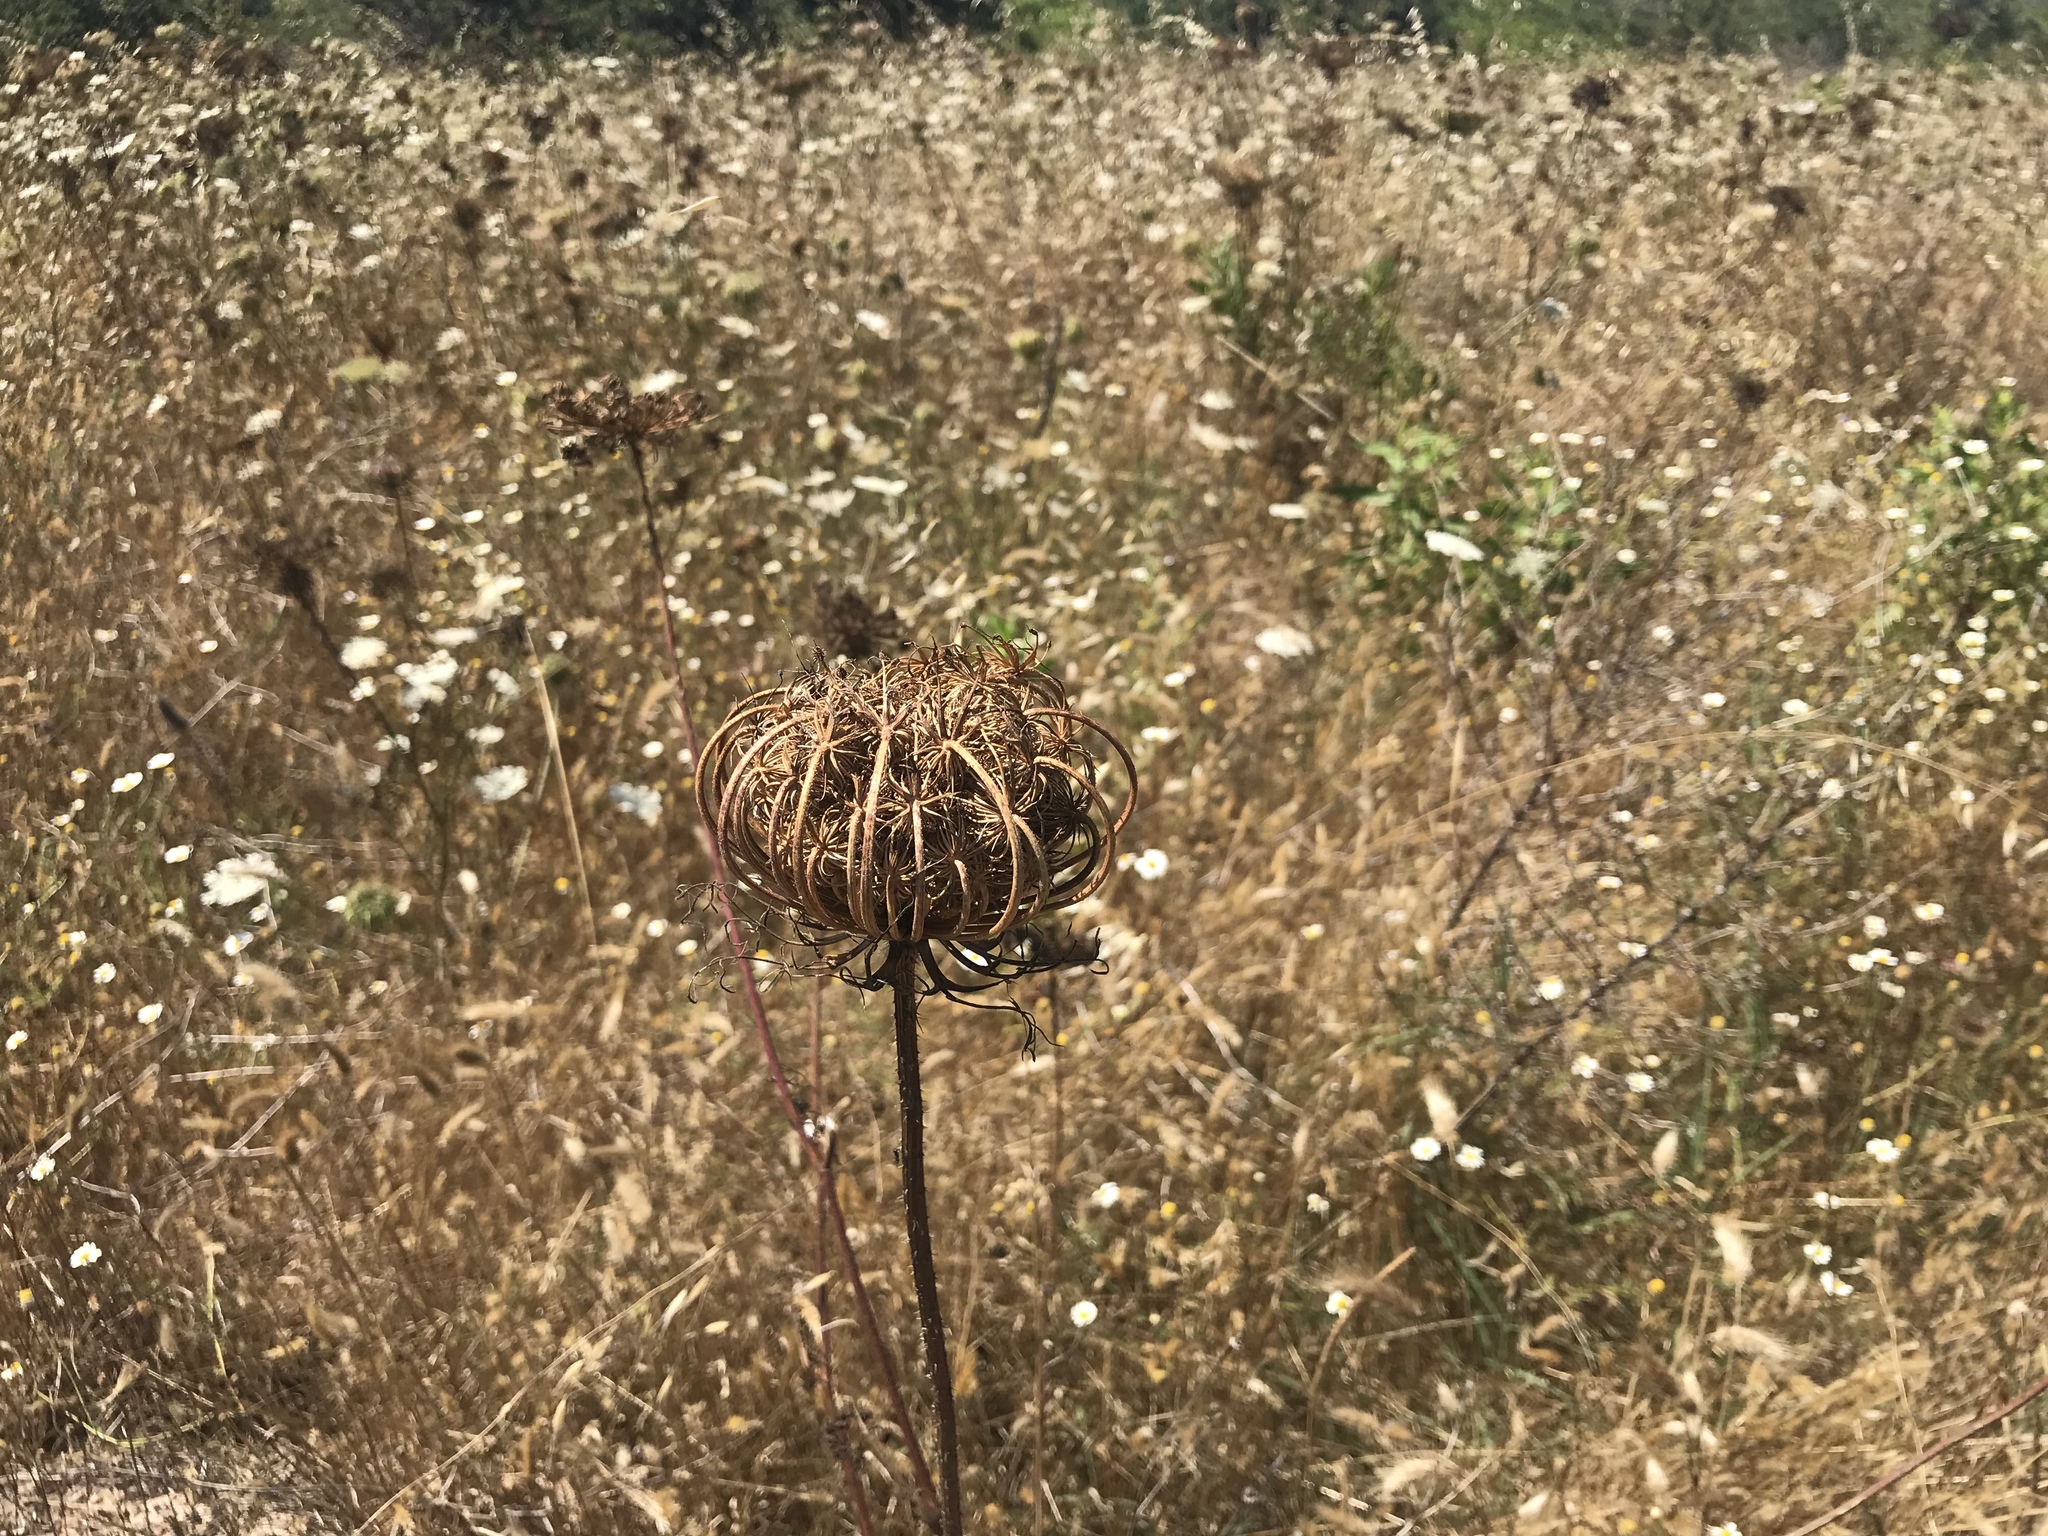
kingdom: Plantae
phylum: Tracheophyta
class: Magnoliopsida
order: Apiales
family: Apiaceae
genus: Daucus
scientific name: Daucus carota
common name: Wild carrot
